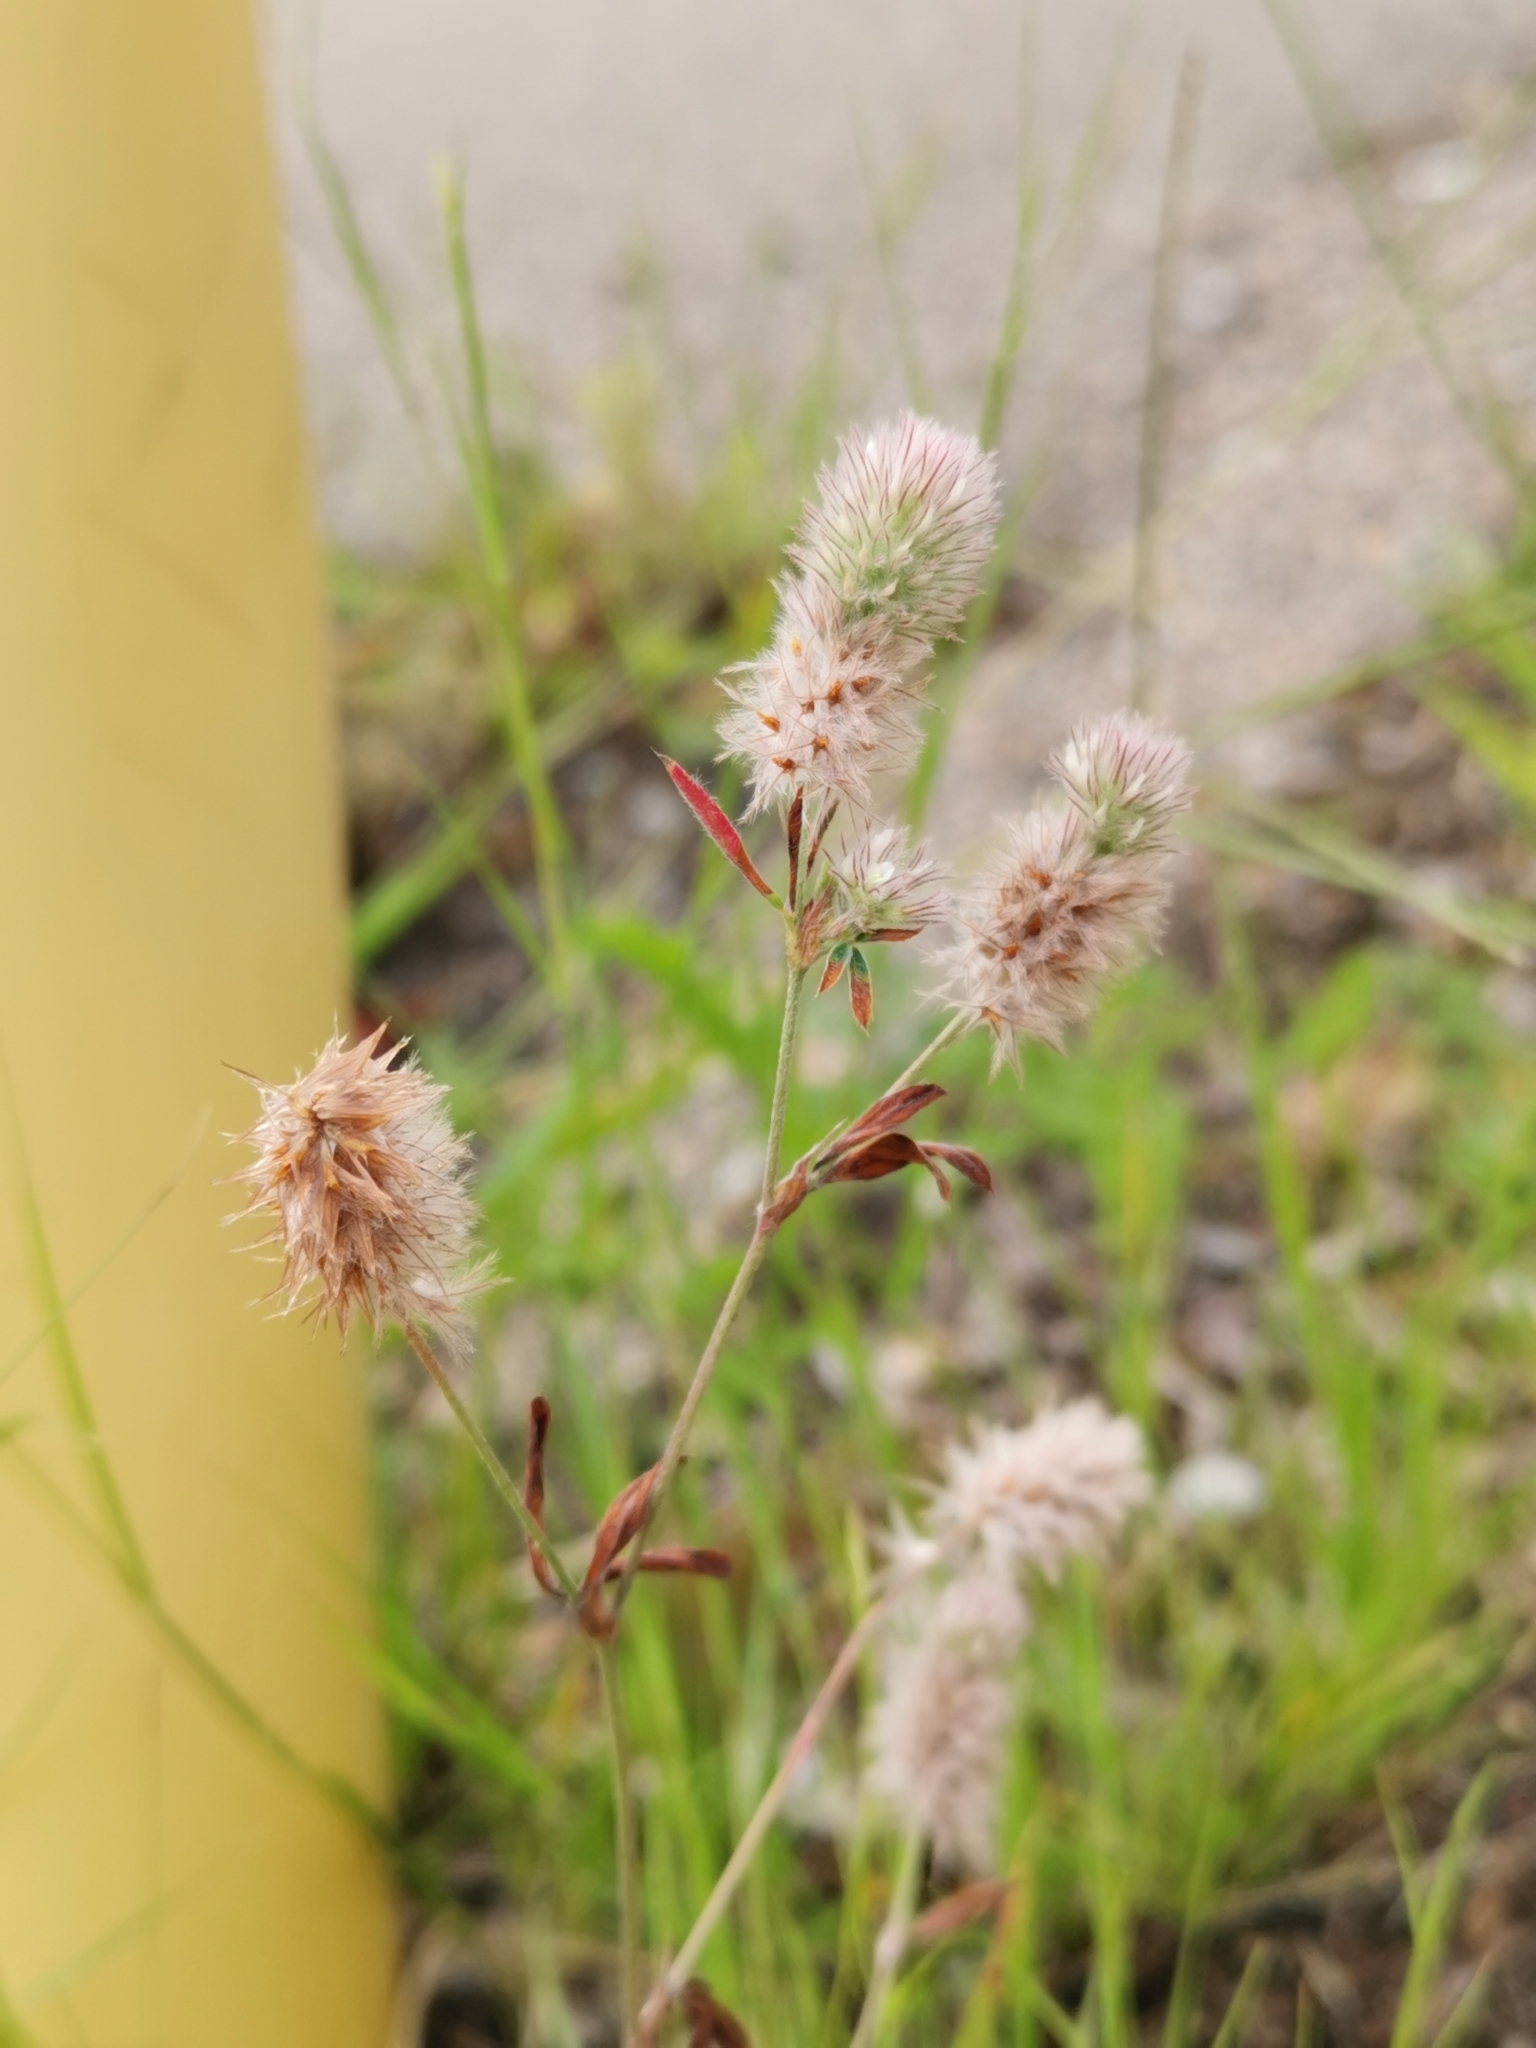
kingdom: Plantae
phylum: Tracheophyta
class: Magnoliopsida
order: Fabales
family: Fabaceae
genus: Trifolium
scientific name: Trifolium arvense
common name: Hare's-foot clover
